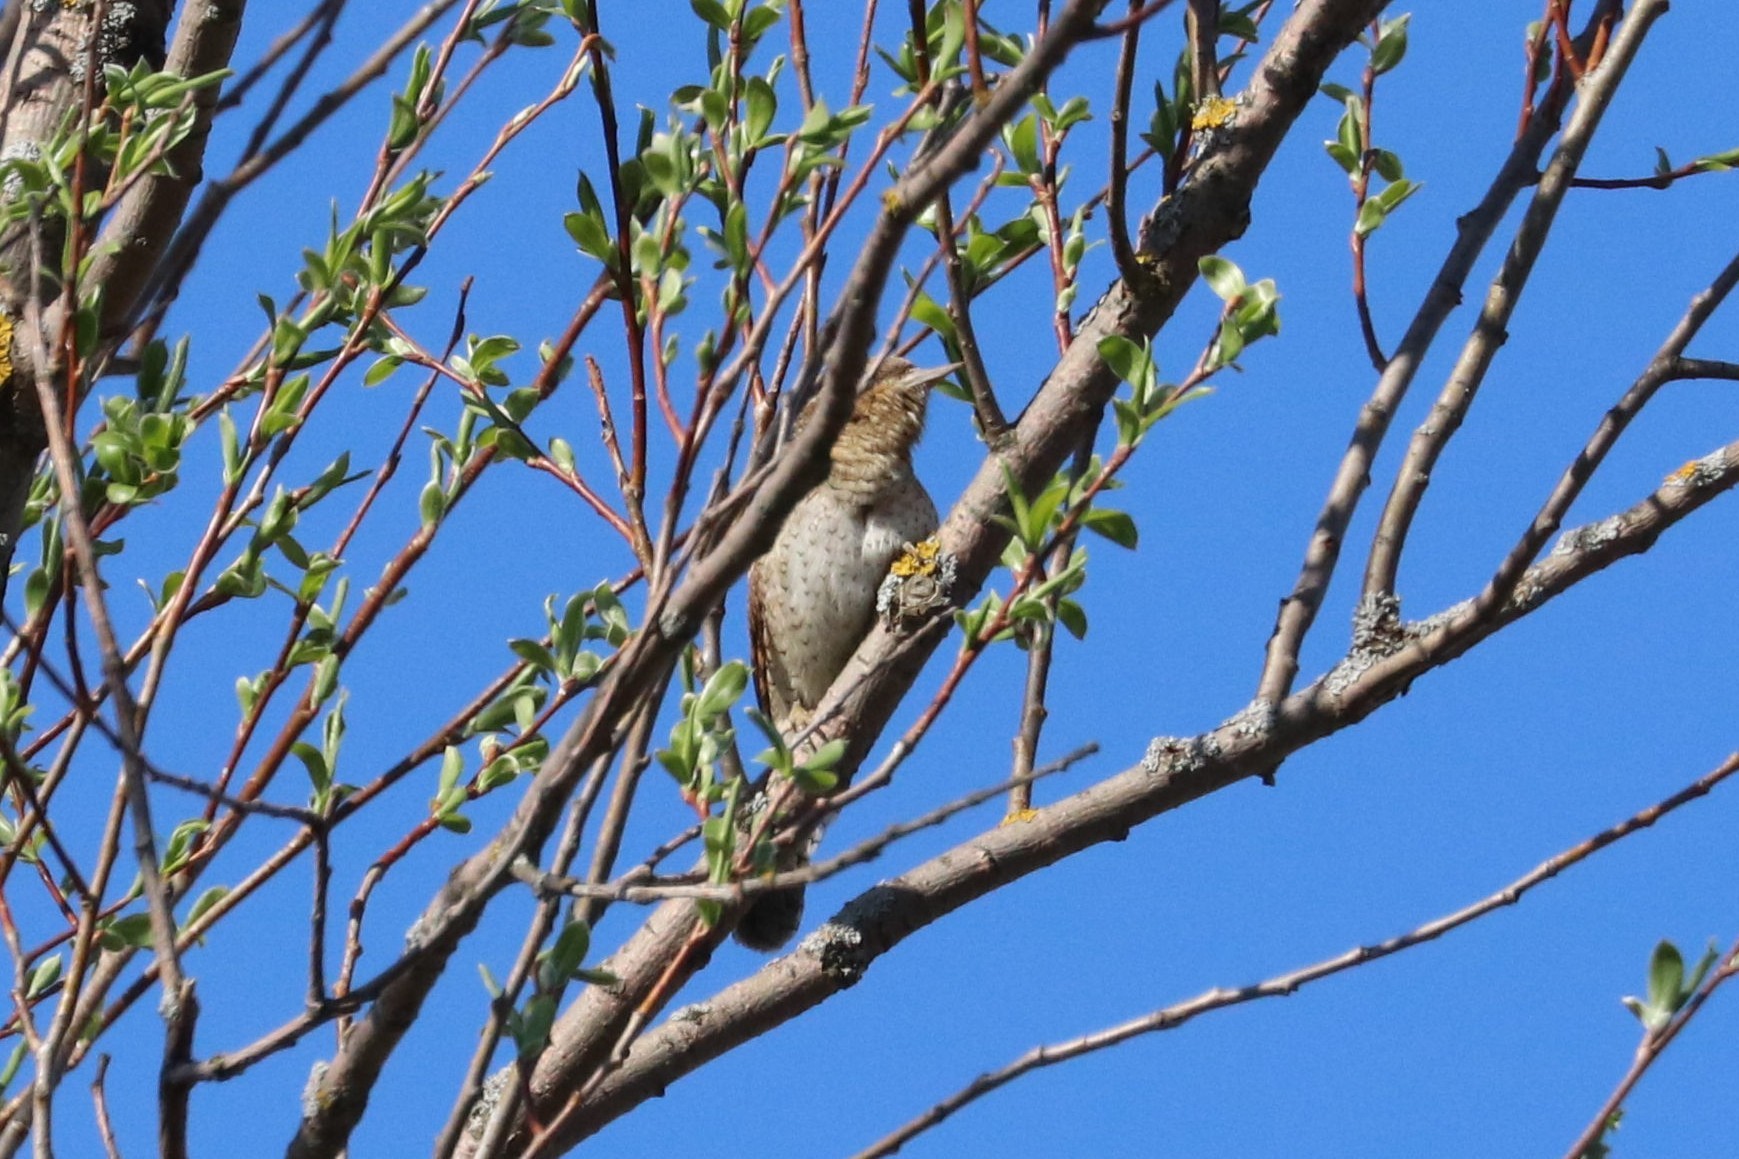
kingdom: Animalia
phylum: Chordata
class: Aves
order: Piciformes
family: Picidae
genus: Jynx
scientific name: Jynx torquilla
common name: Eurasian wryneck
